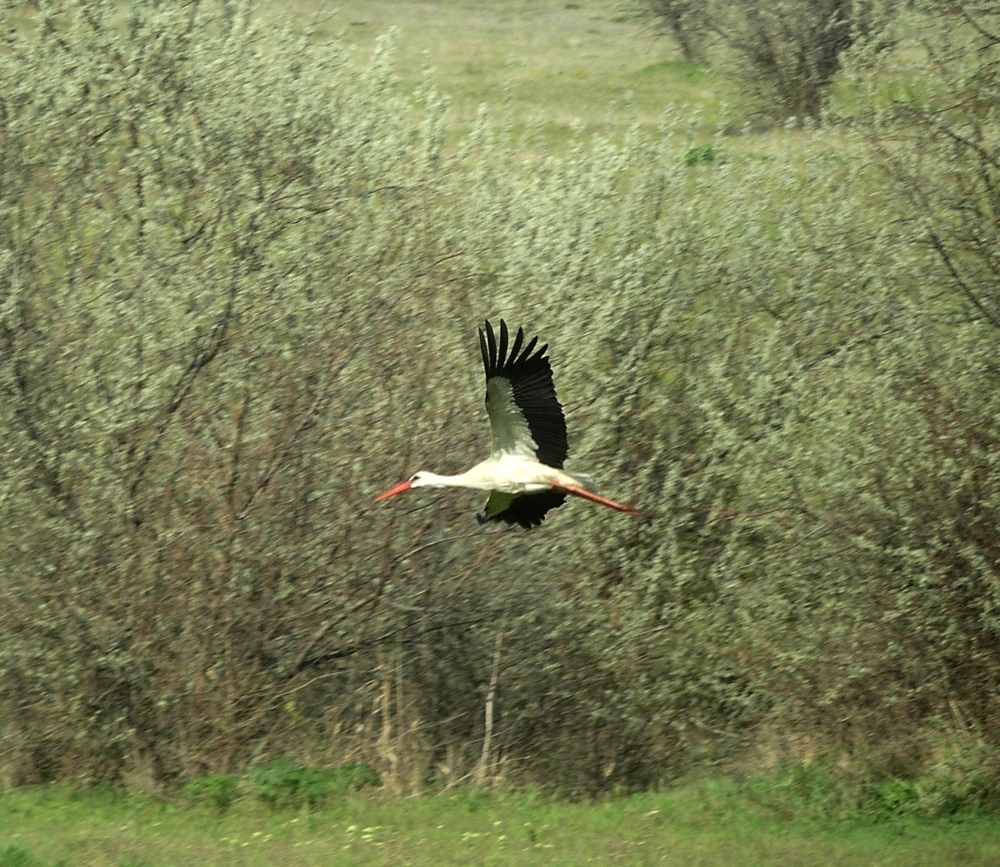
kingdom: Animalia
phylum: Chordata
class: Aves
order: Ciconiiformes
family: Ciconiidae
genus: Ciconia
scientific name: Ciconia ciconia
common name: White stork
